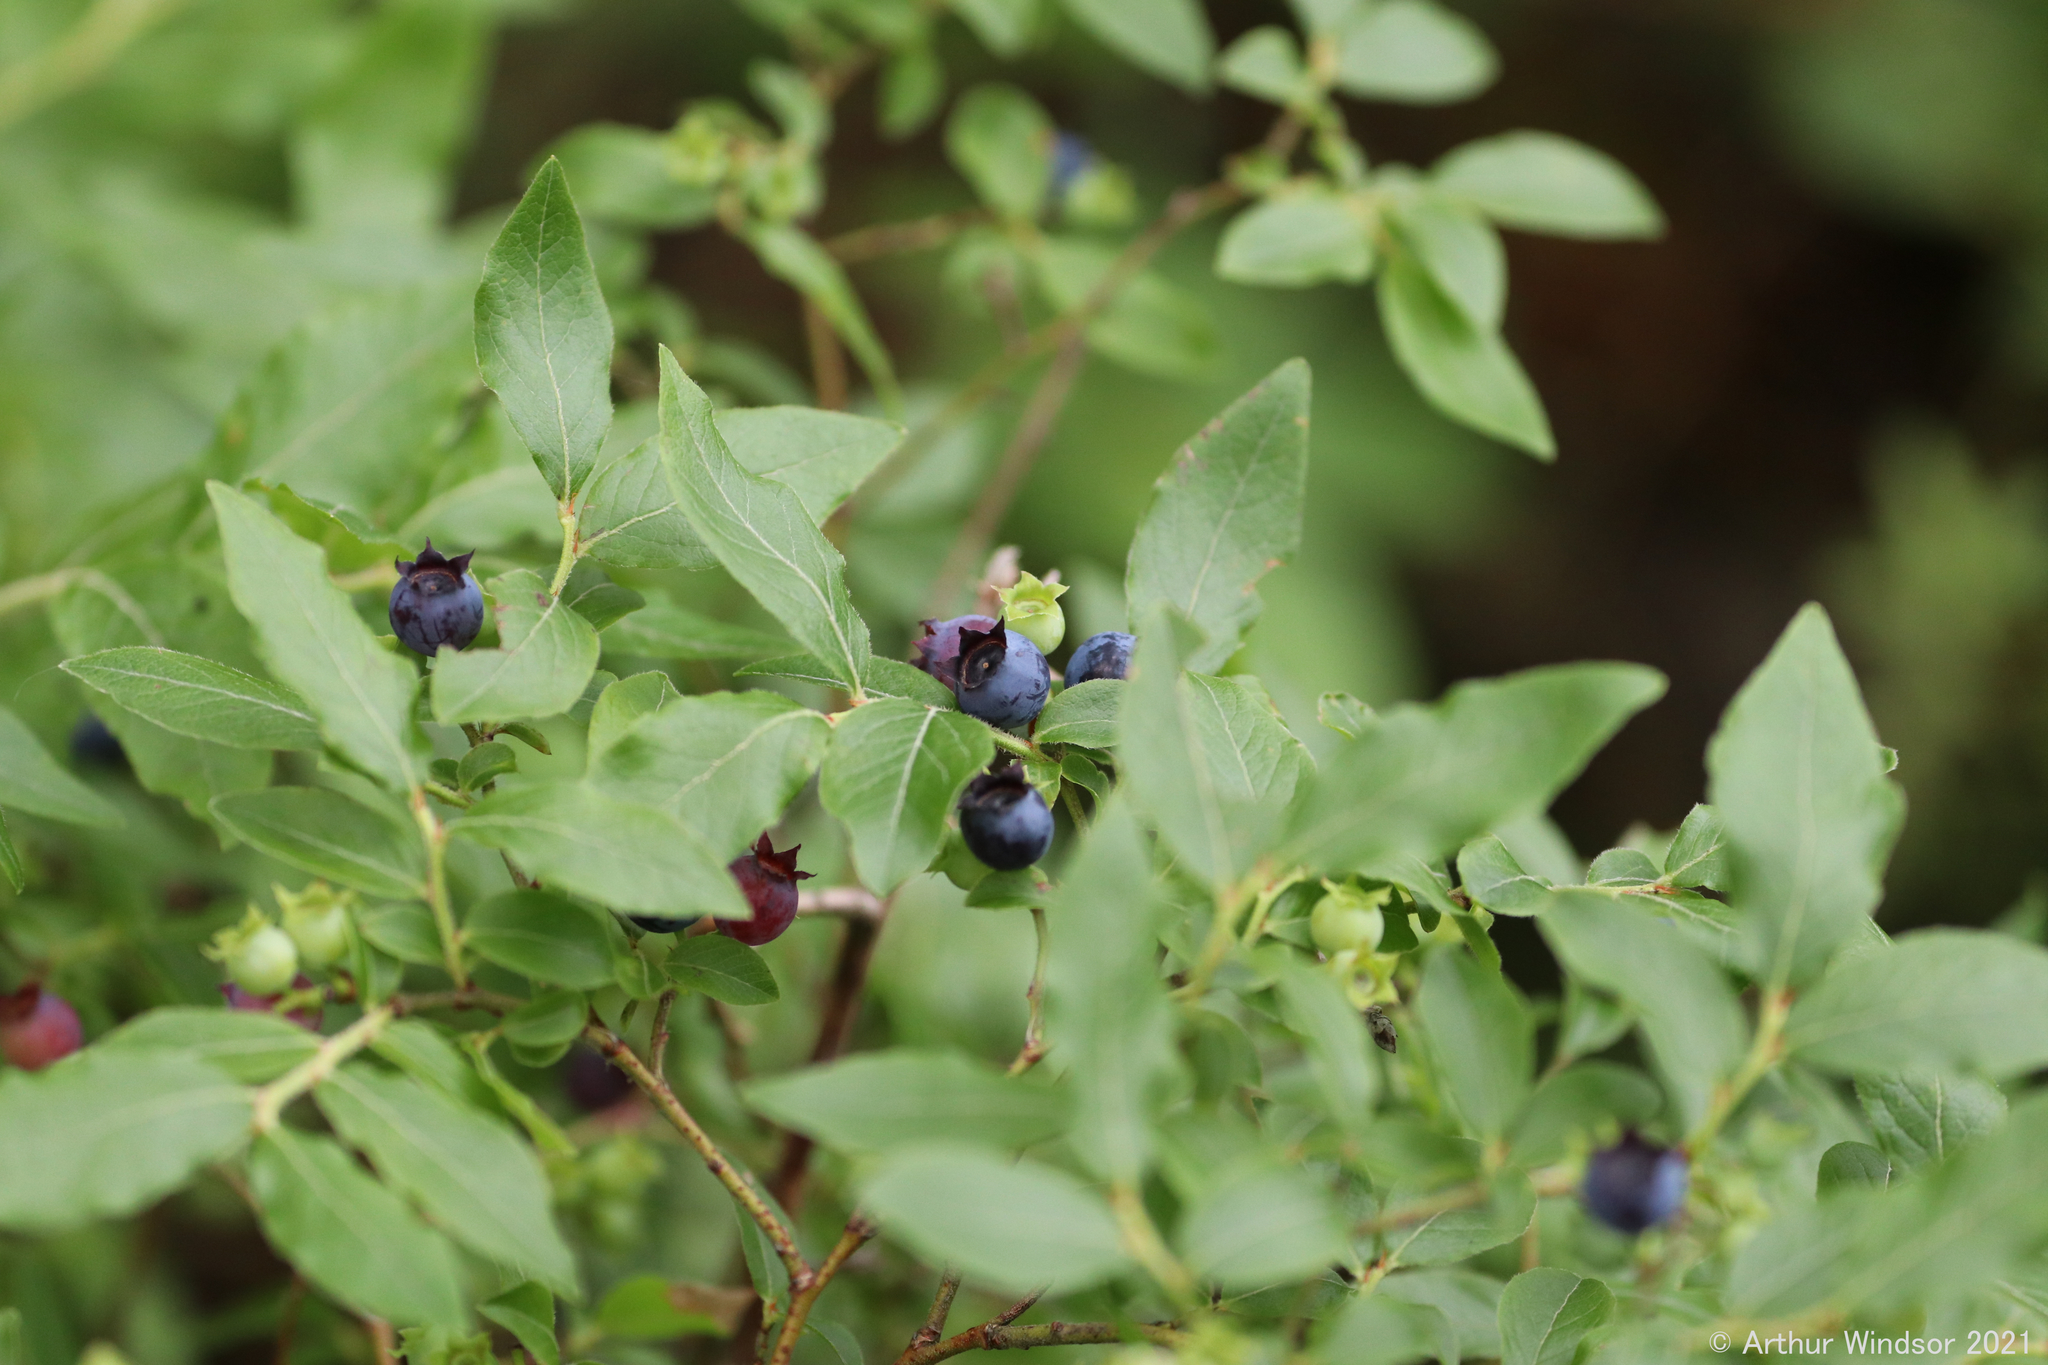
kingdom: Plantae
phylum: Tracheophyta
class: Magnoliopsida
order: Ericales
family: Ericaceae
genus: Vaccinium
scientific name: Vaccinium myrtilloides
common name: Canada blueberry
